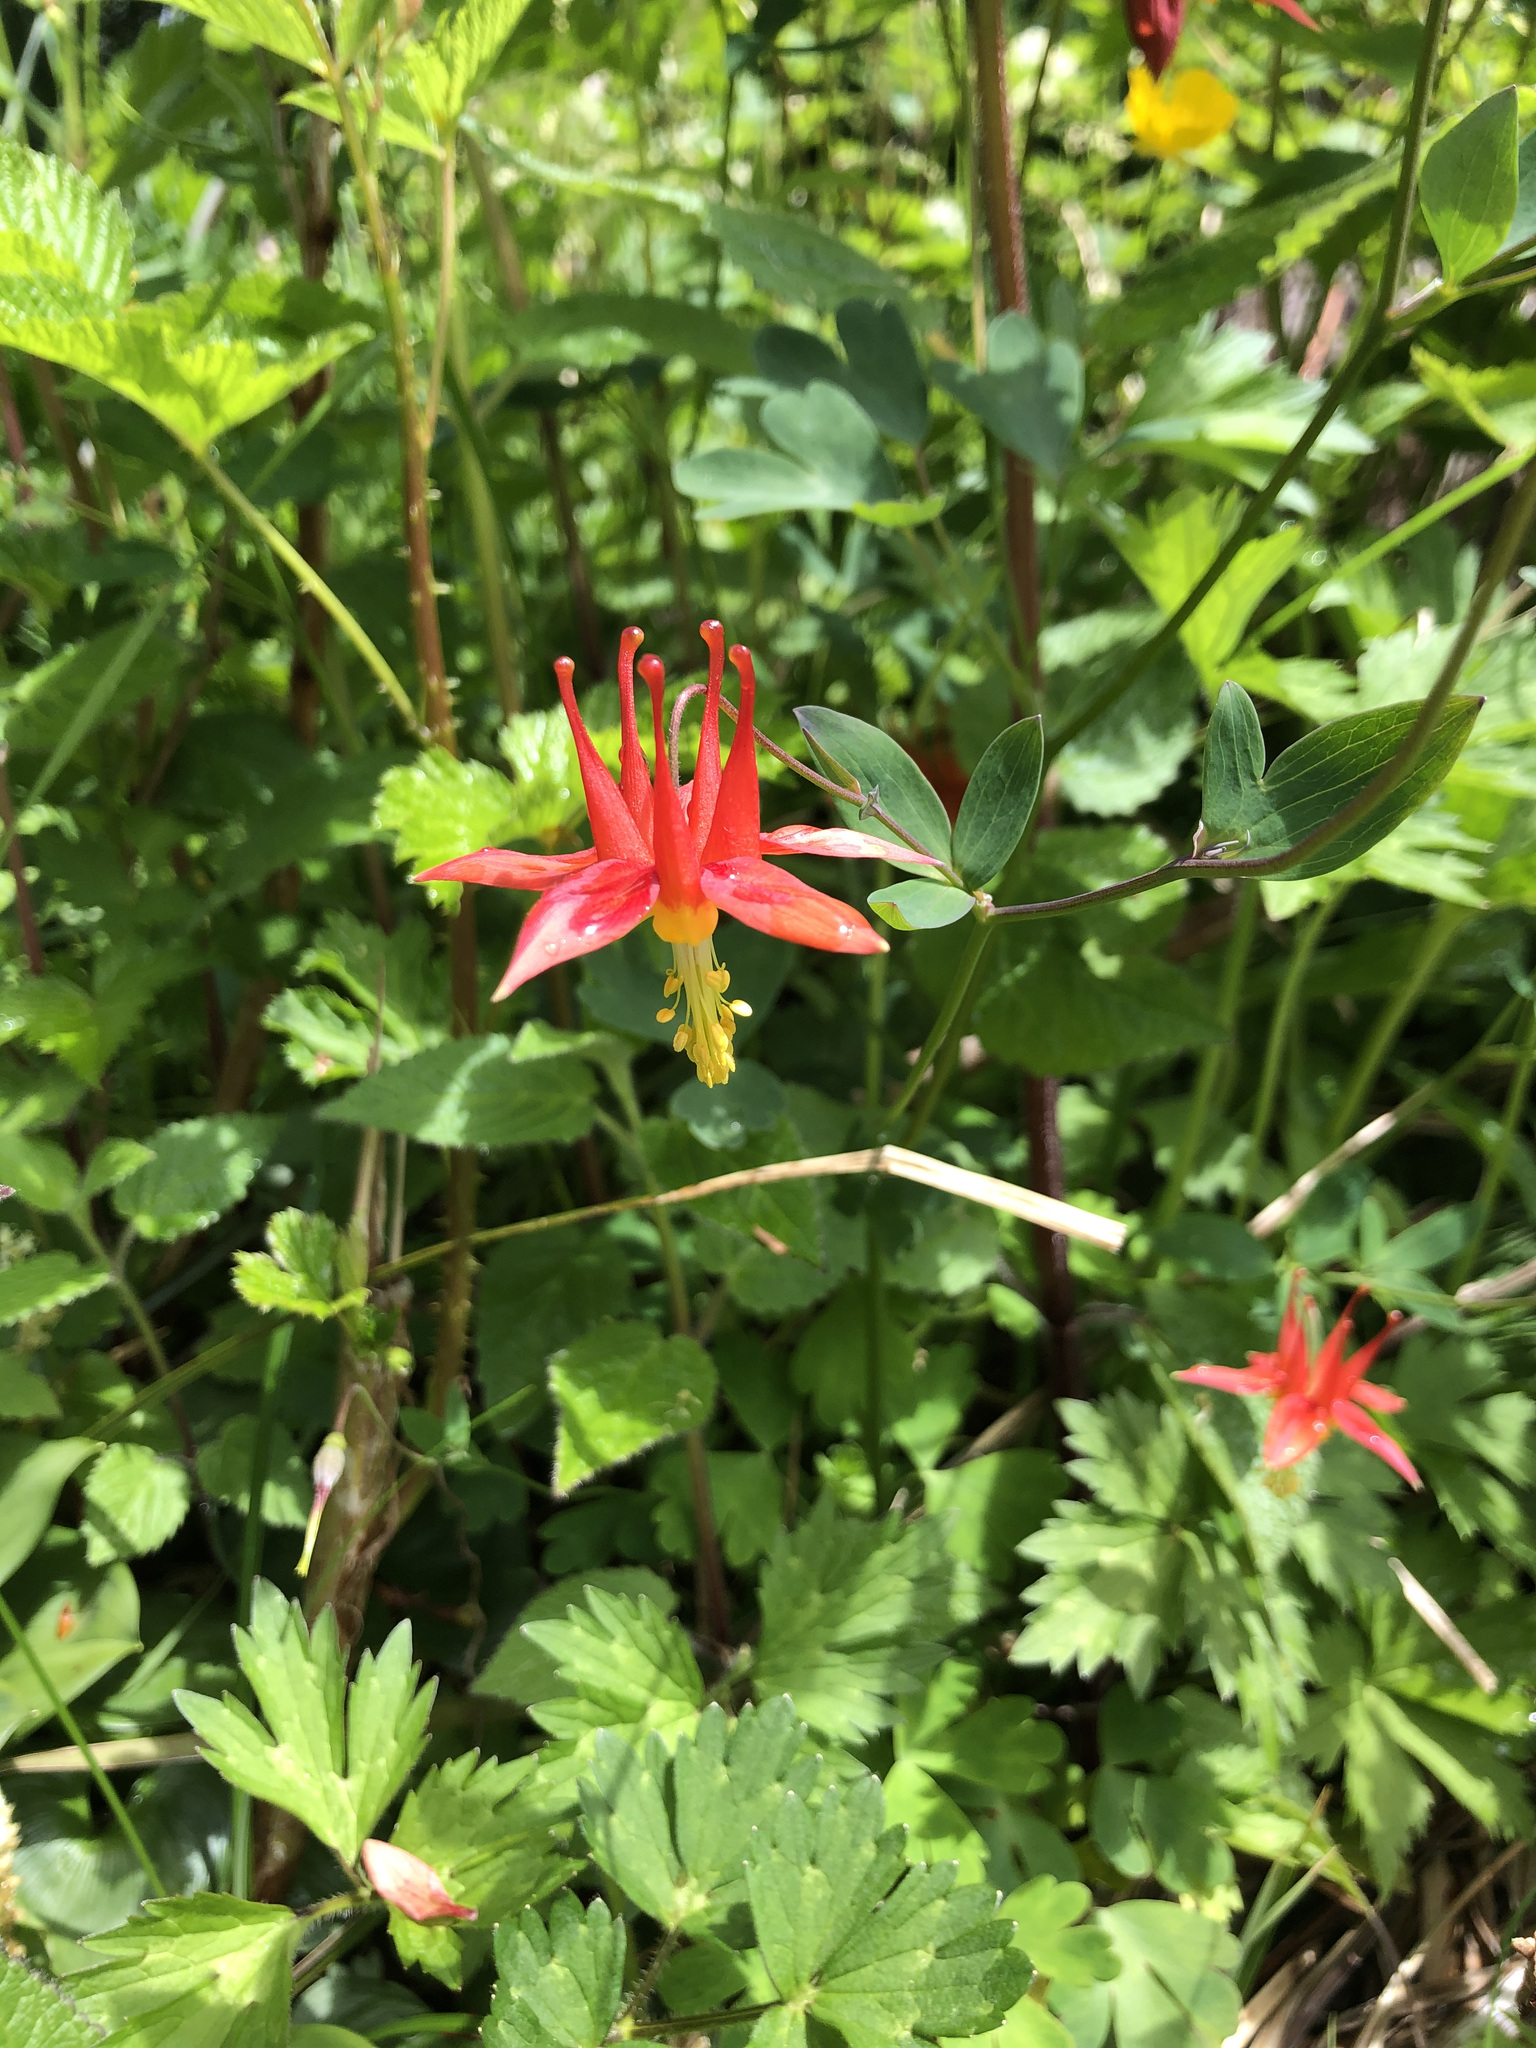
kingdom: Plantae
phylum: Tracheophyta
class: Magnoliopsida
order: Ranunculales
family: Ranunculaceae
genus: Aquilegia
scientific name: Aquilegia formosa
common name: Sitka columbine
